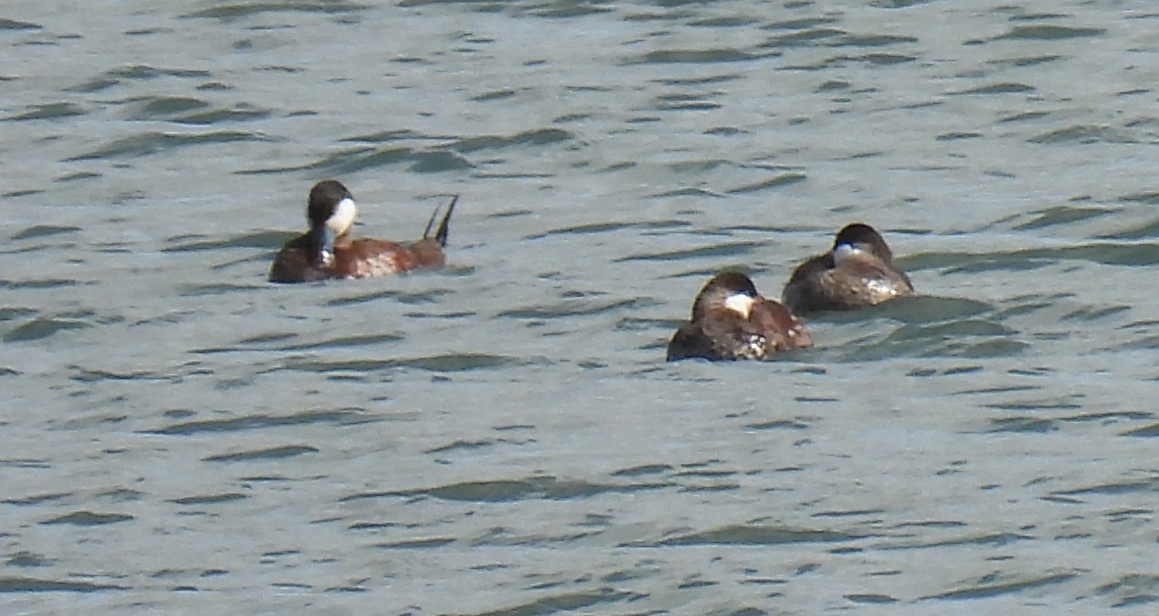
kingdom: Animalia
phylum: Chordata
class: Aves
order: Anseriformes
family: Anatidae
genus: Oxyura
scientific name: Oxyura jamaicensis
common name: Ruddy duck
